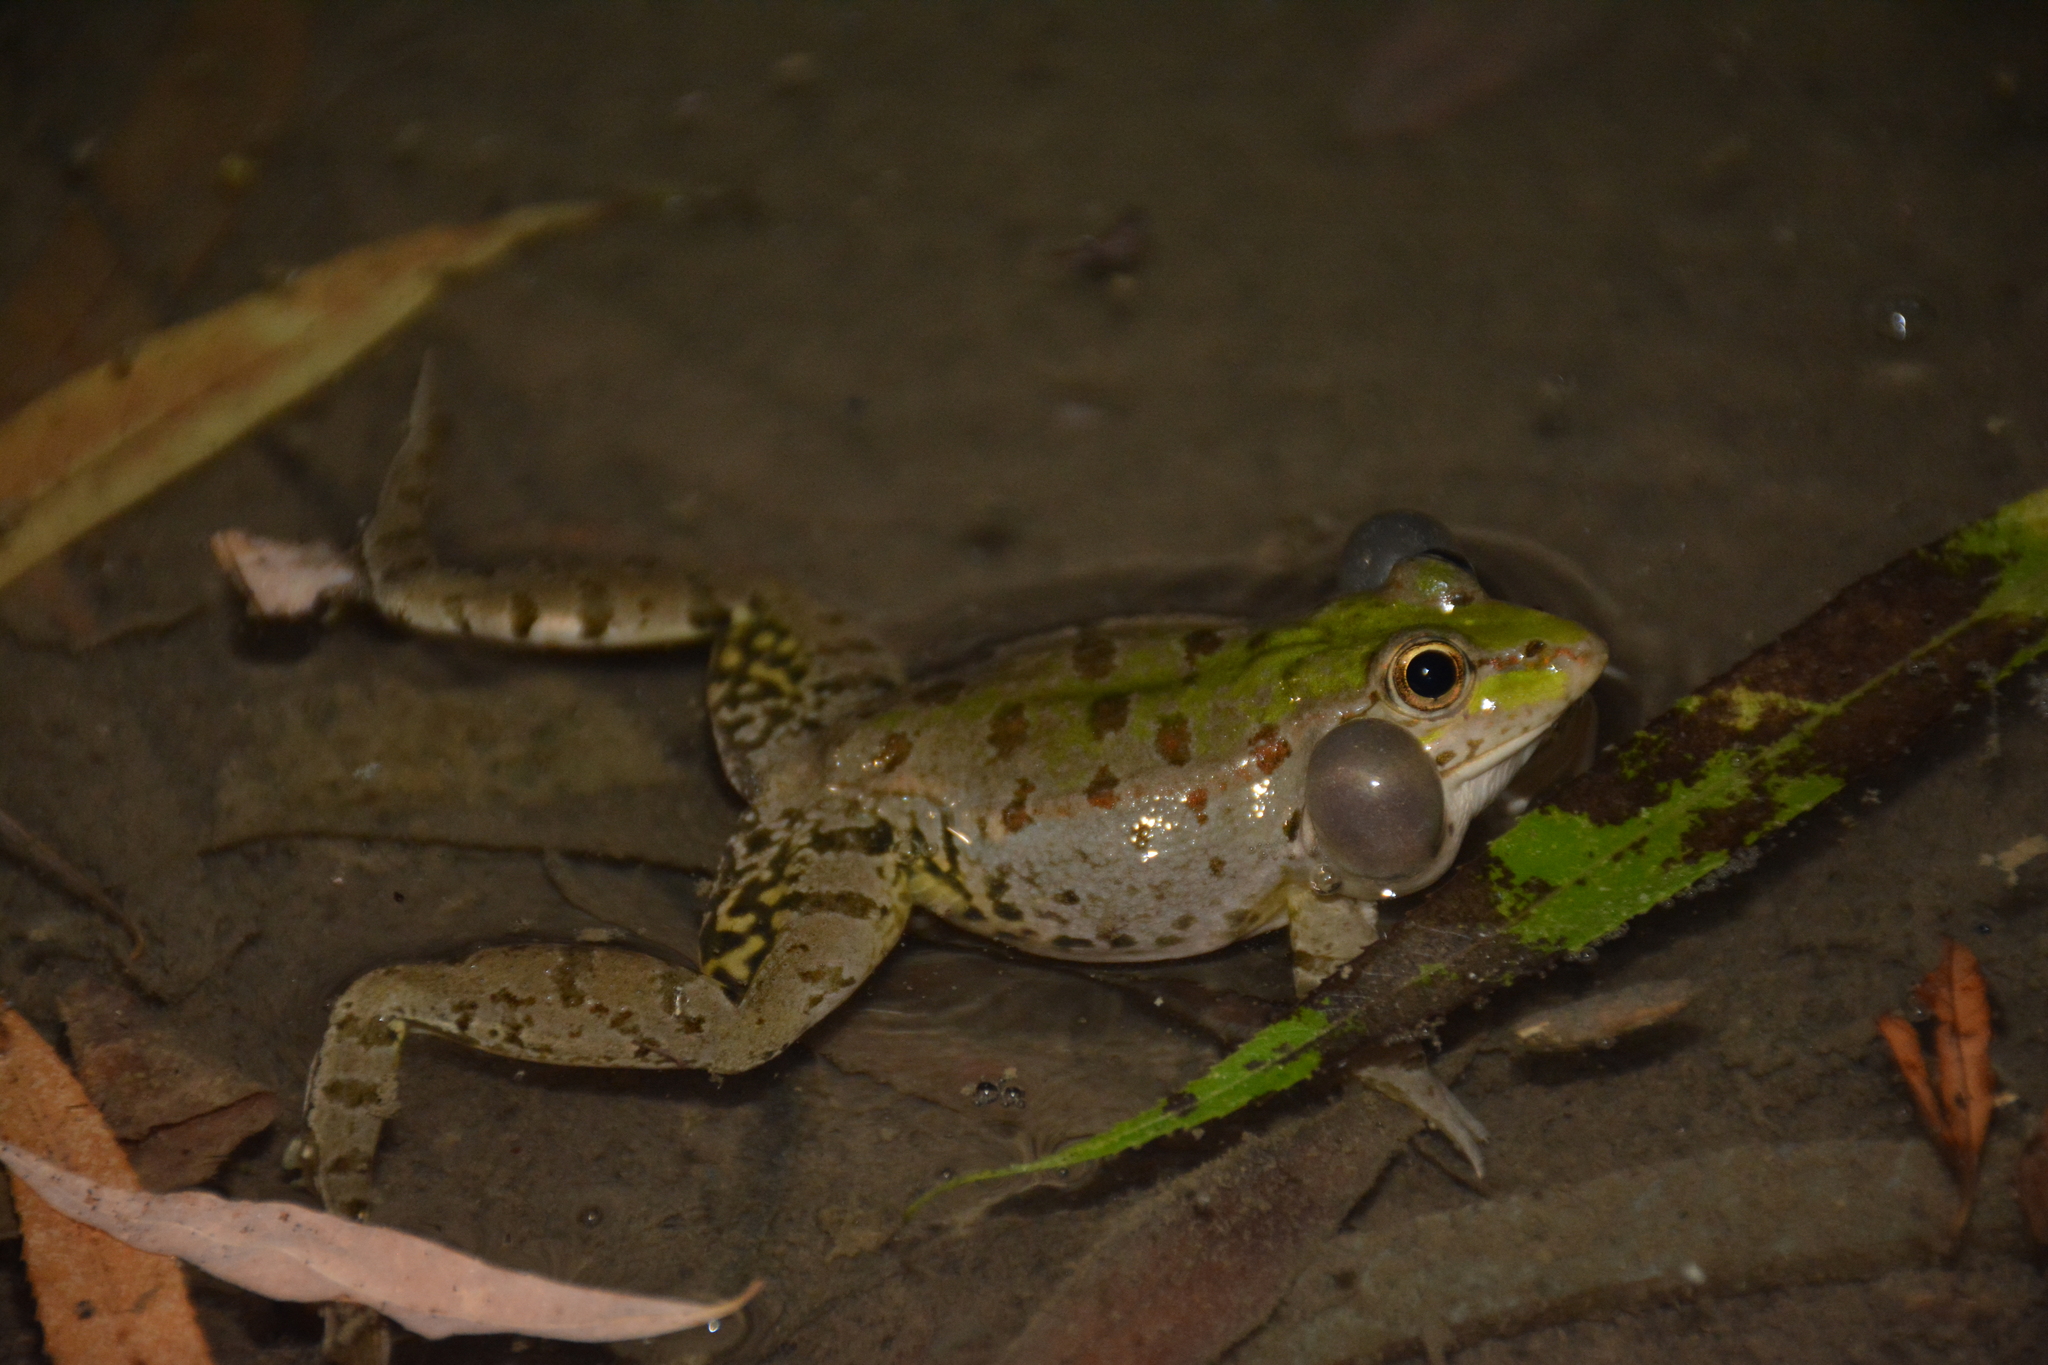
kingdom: Animalia
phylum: Chordata
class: Amphibia
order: Anura
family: Ranidae
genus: Pelophylax
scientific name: Pelophylax ridibundus
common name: Marsh frog
